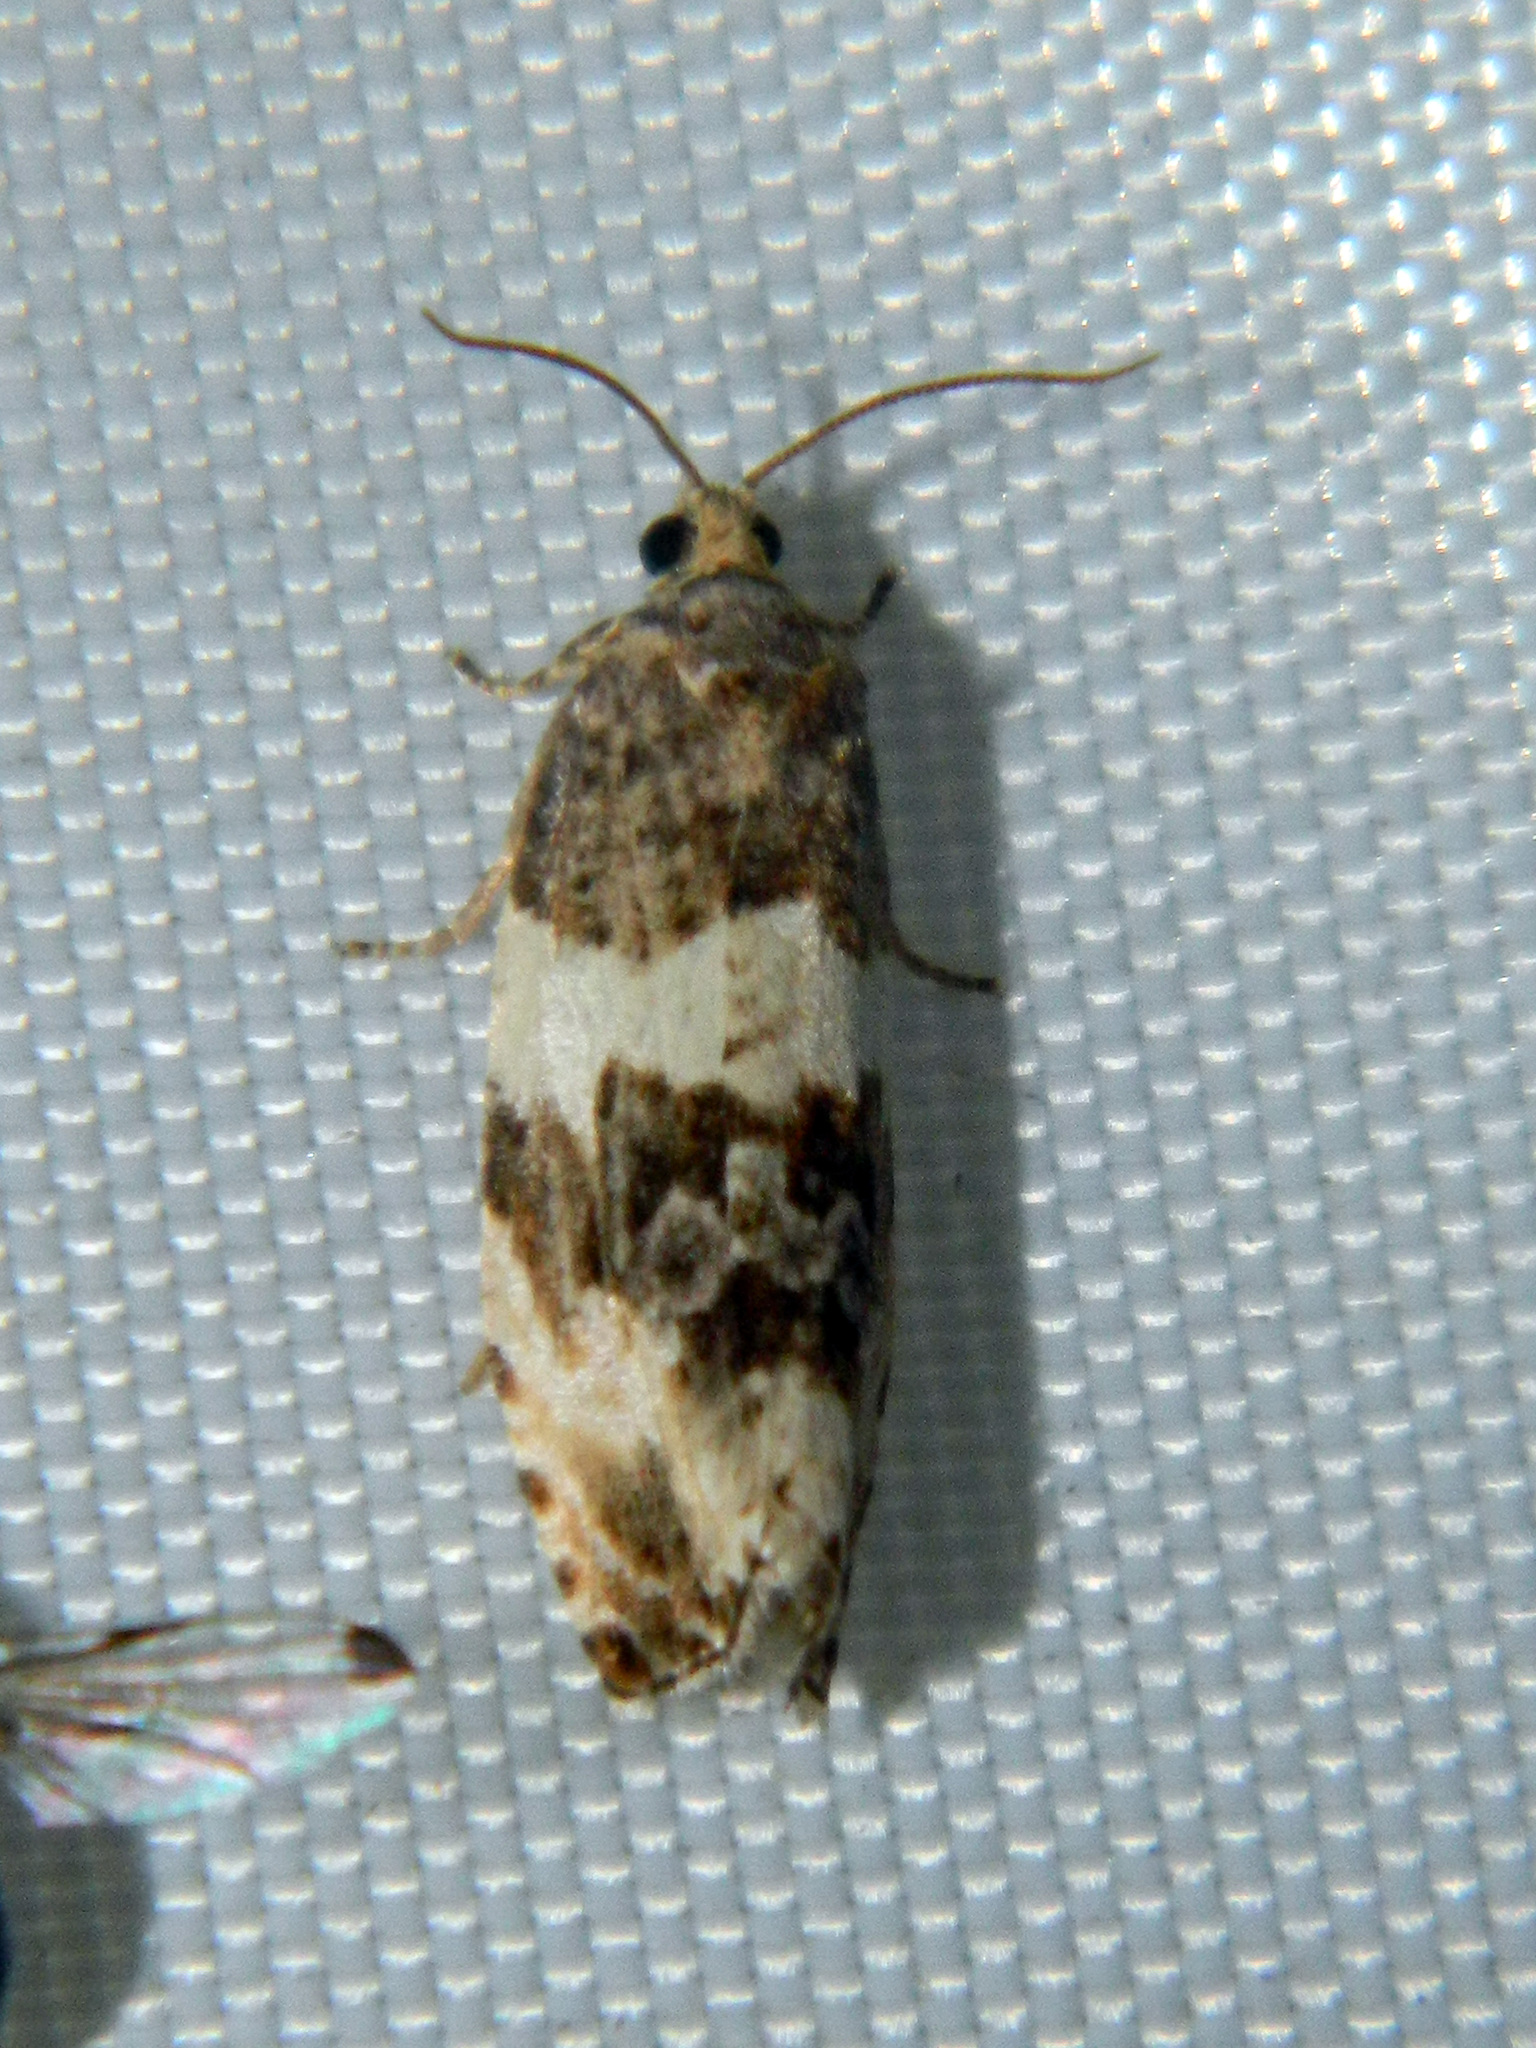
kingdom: Animalia
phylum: Arthropoda
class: Insecta
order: Lepidoptera
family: Tortricidae
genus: Pseudosciaphila
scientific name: Pseudosciaphila duplex
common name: Poplar leafroller moth
